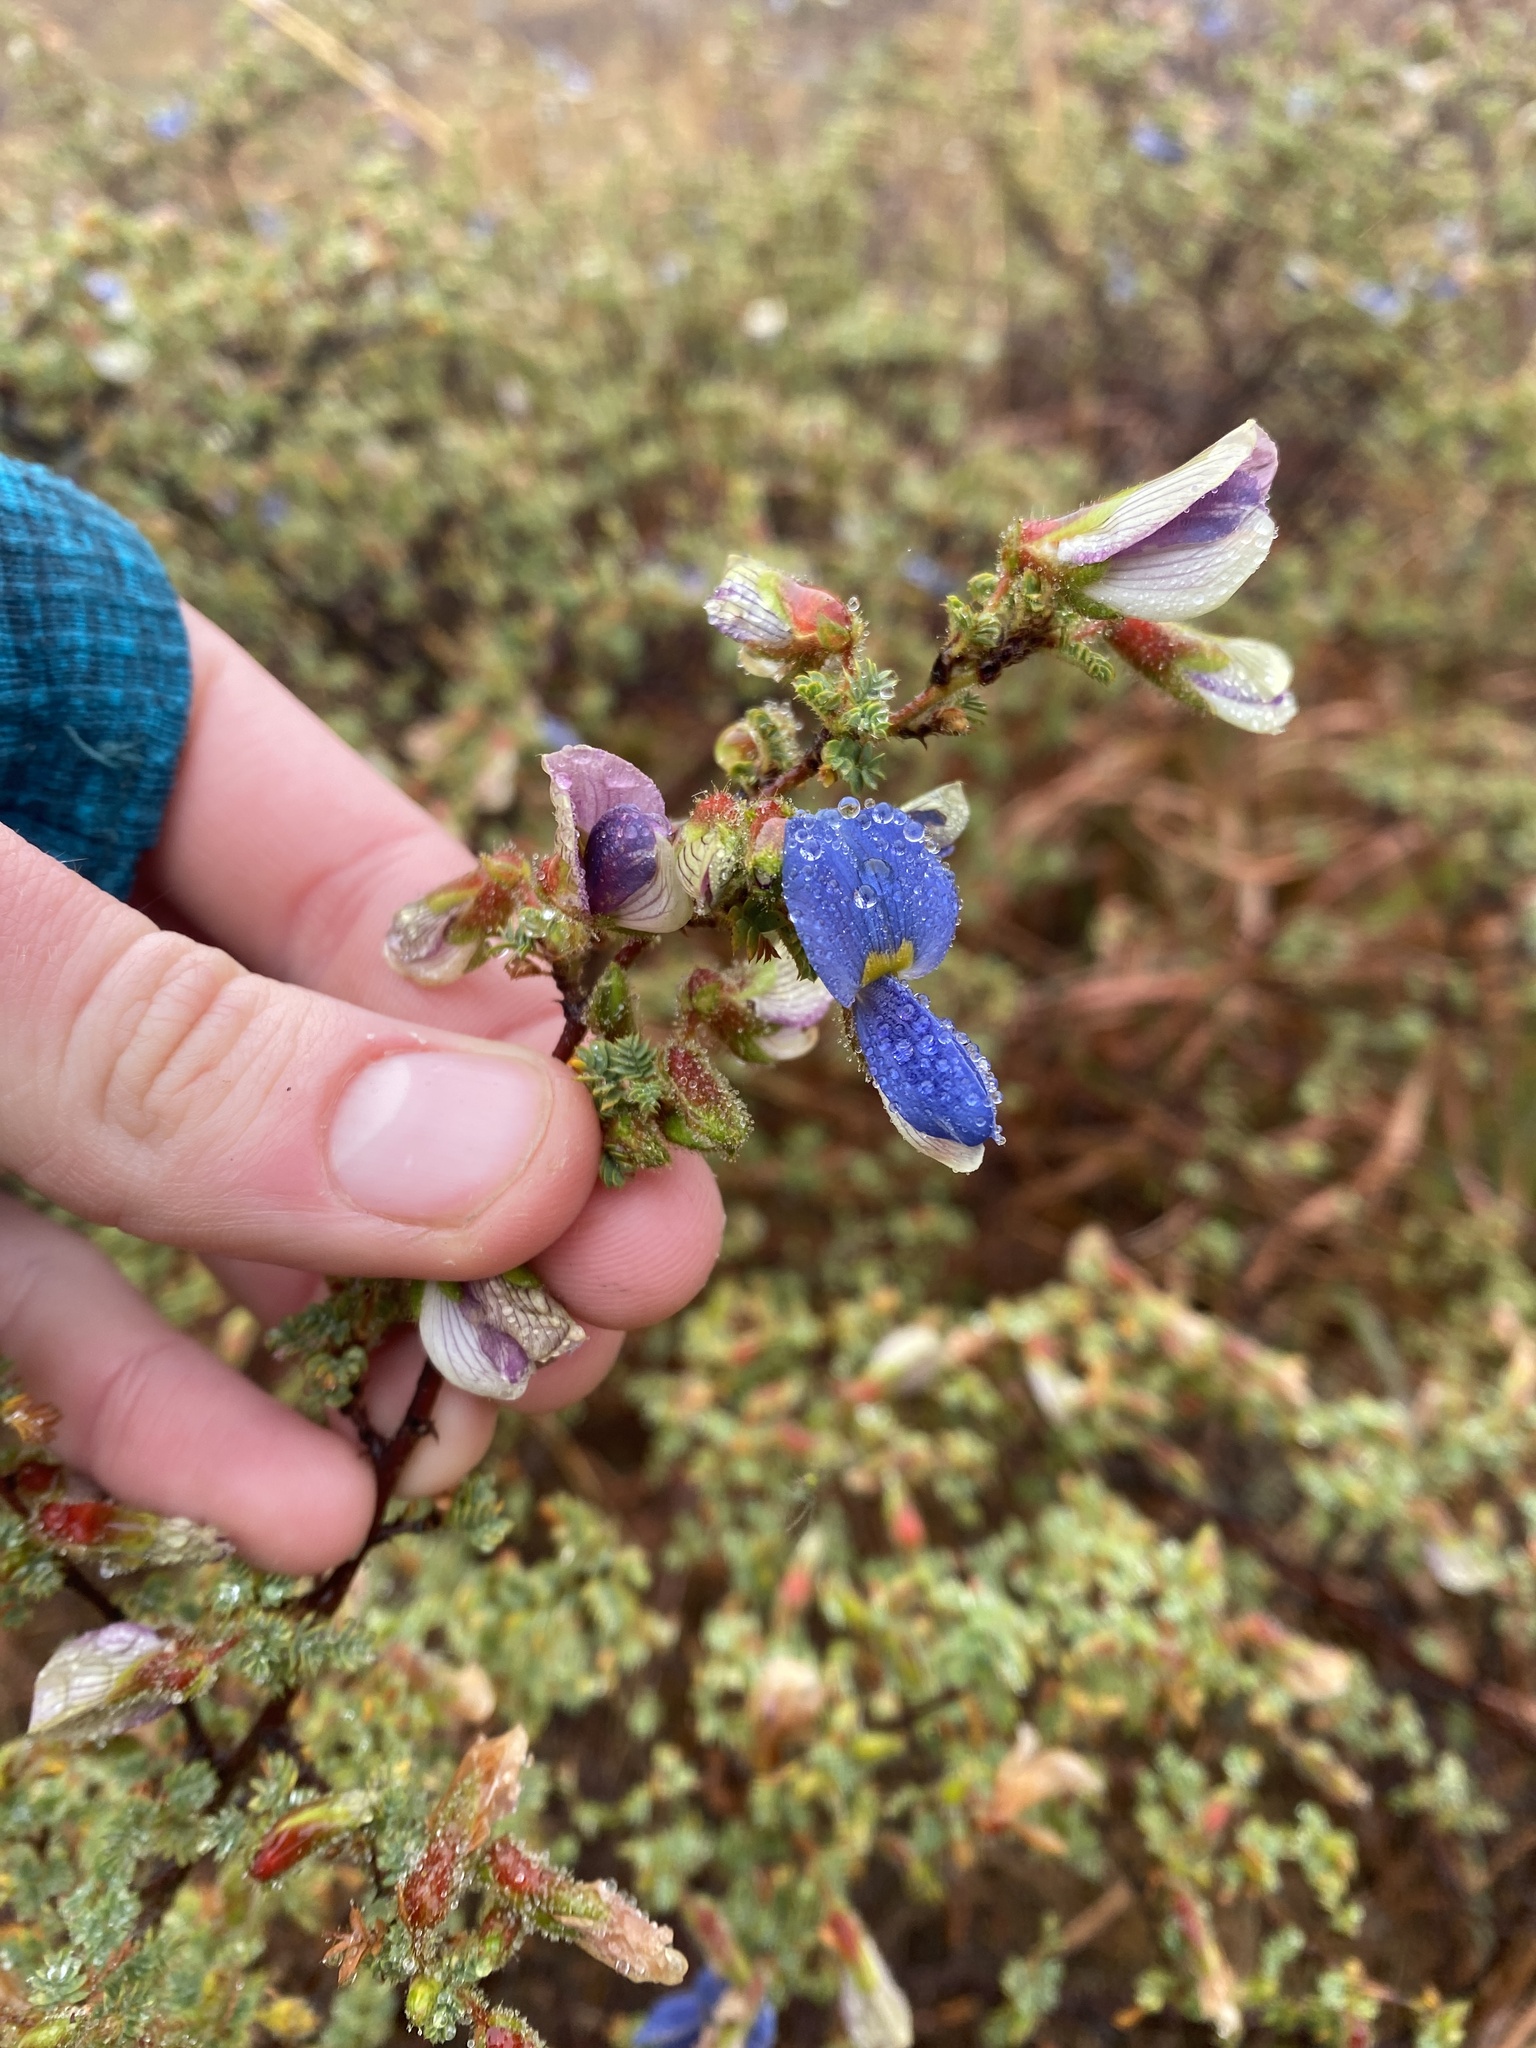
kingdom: Plantae
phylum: Tracheophyta
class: Magnoliopsida
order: Fabales
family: Fabaceae
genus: Kotschya
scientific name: Kotschya parvifolia
